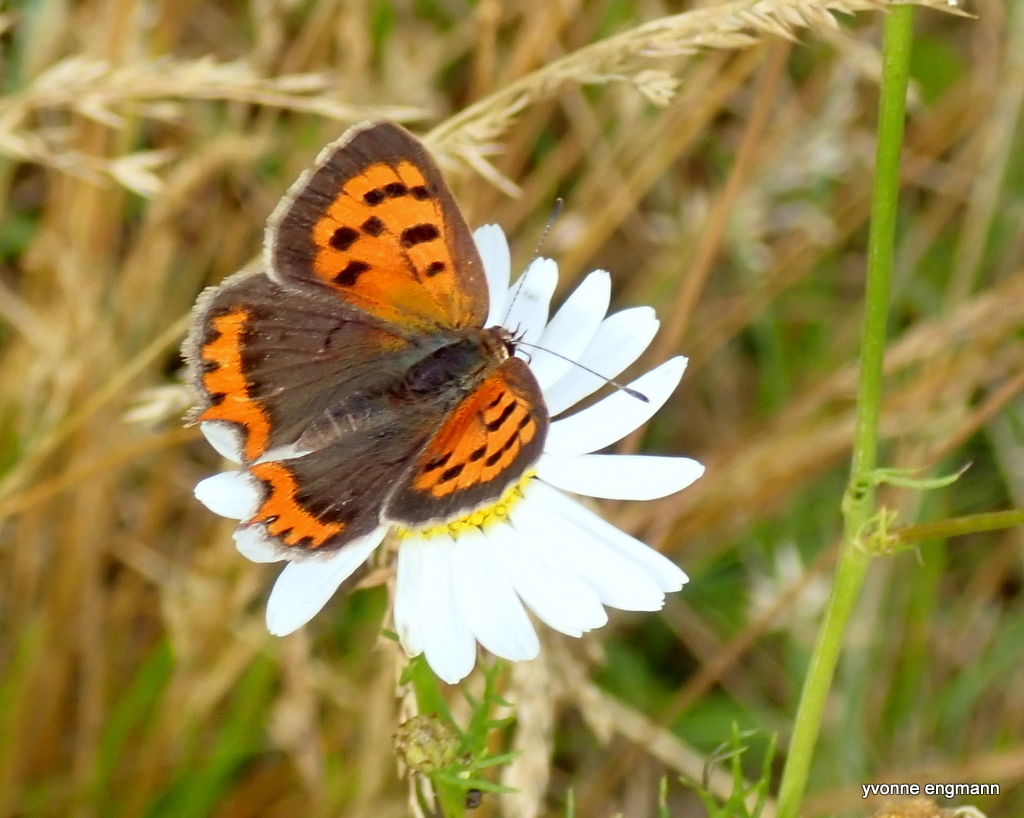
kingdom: Animalia
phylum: Arthropoda
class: Insecta
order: Lepidoptera
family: Lycaenidae
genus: Lycaena
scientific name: Lycaena phlaeas
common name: Small copper
